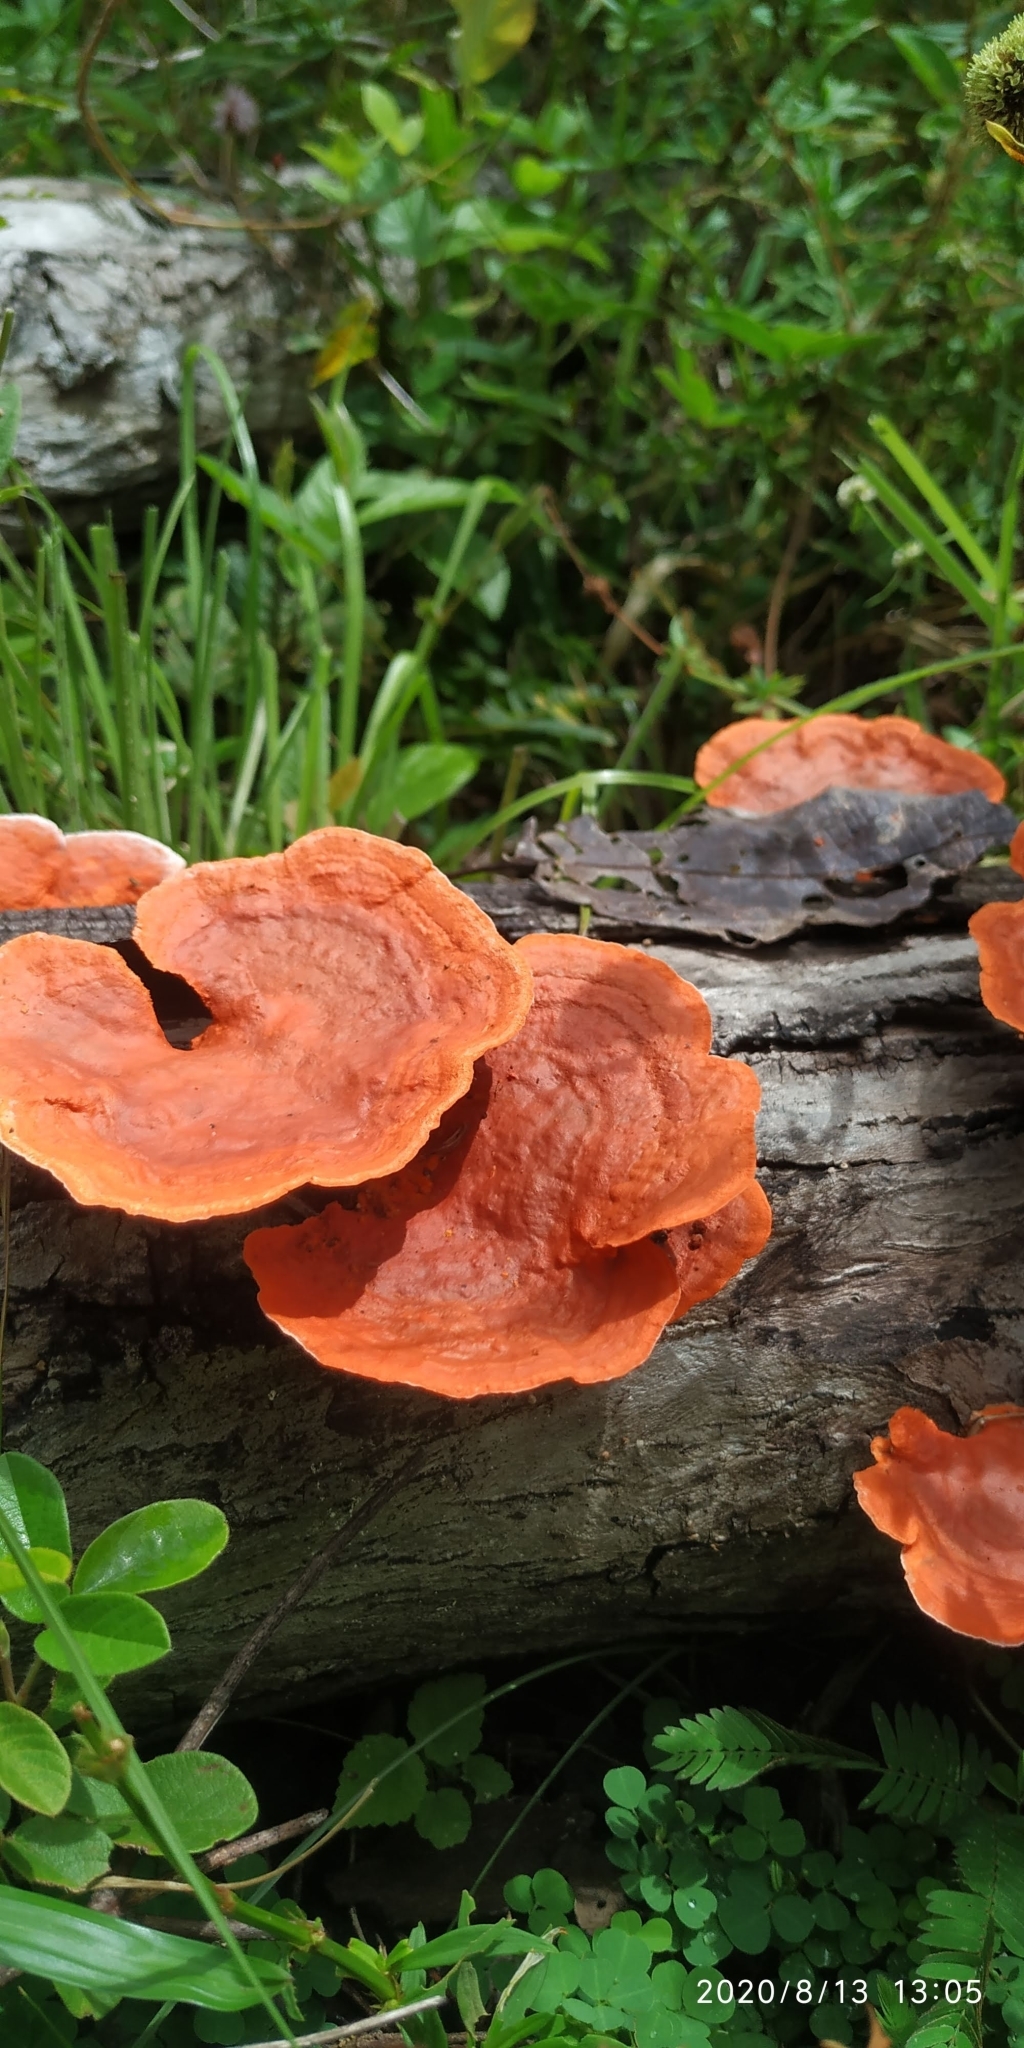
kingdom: Fungi
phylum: Basidiomycota
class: Agaricomycetes
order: Polyporales
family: Polyporaceae
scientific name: Polyporaceae
